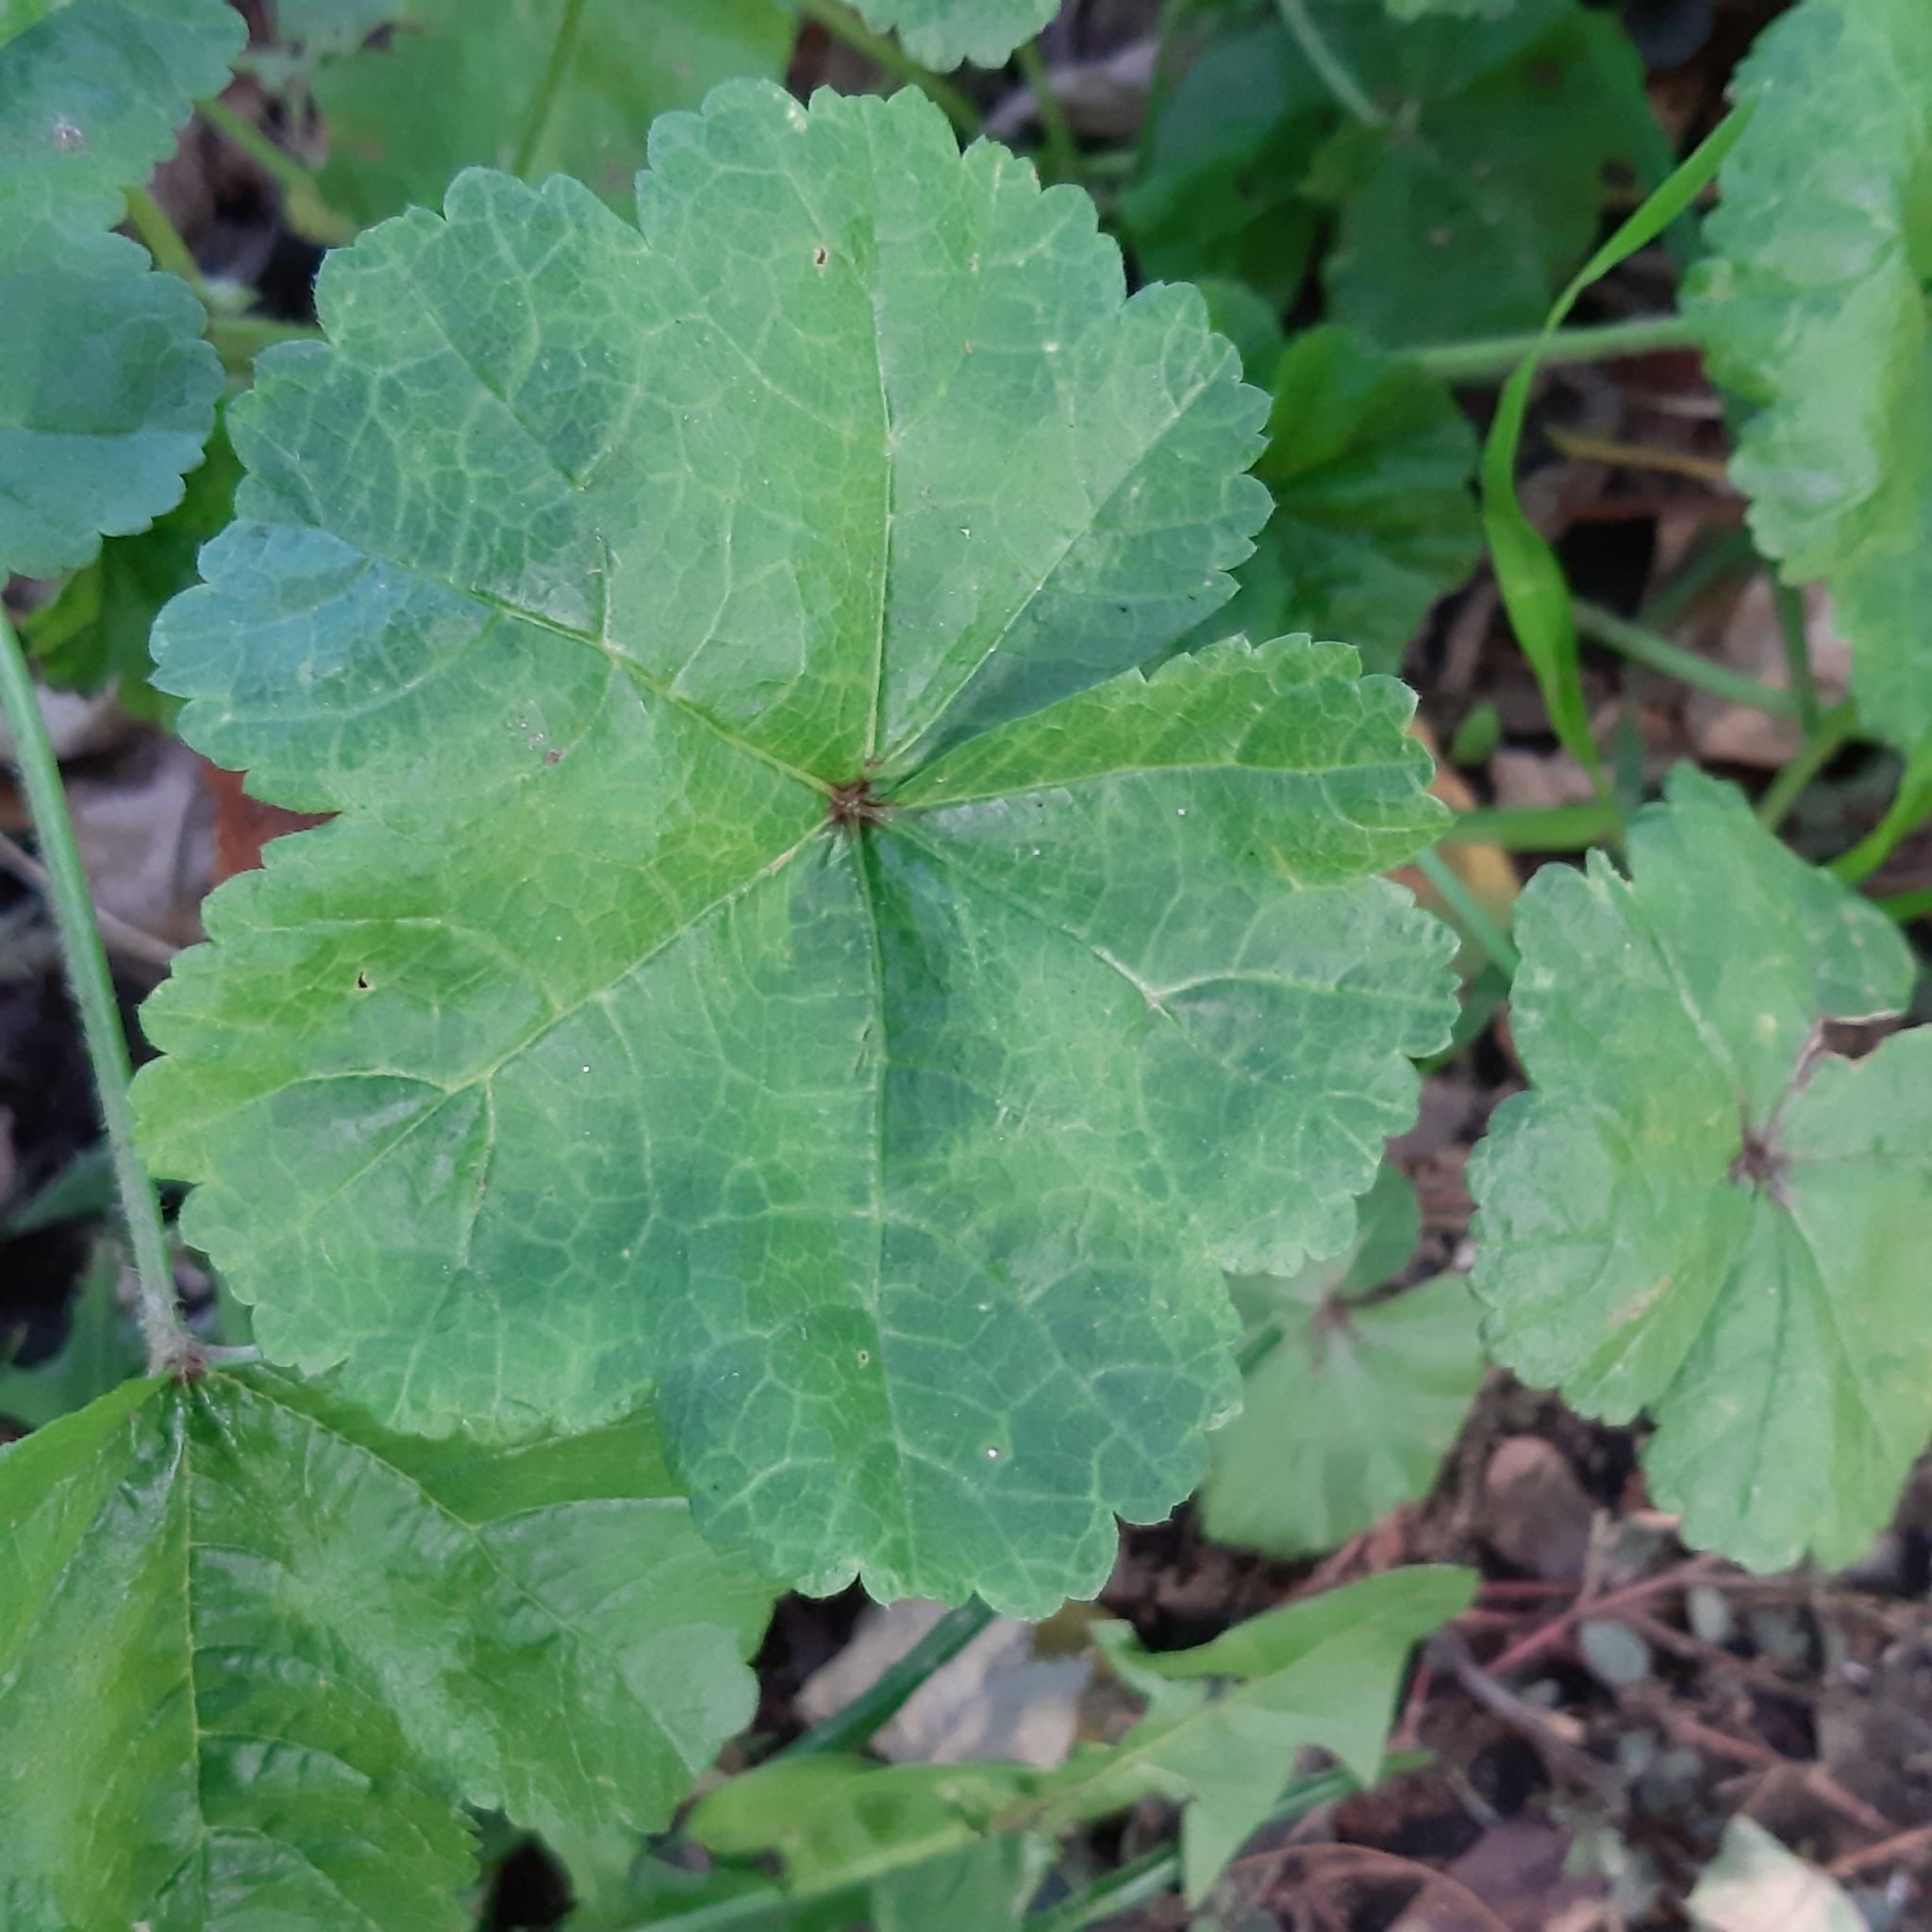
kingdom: Plantae
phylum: Tracheophyta
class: Magnoliopsida
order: Malvales
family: Malvaceae
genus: Malva
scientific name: Malva sylvestris
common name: Common mallow
